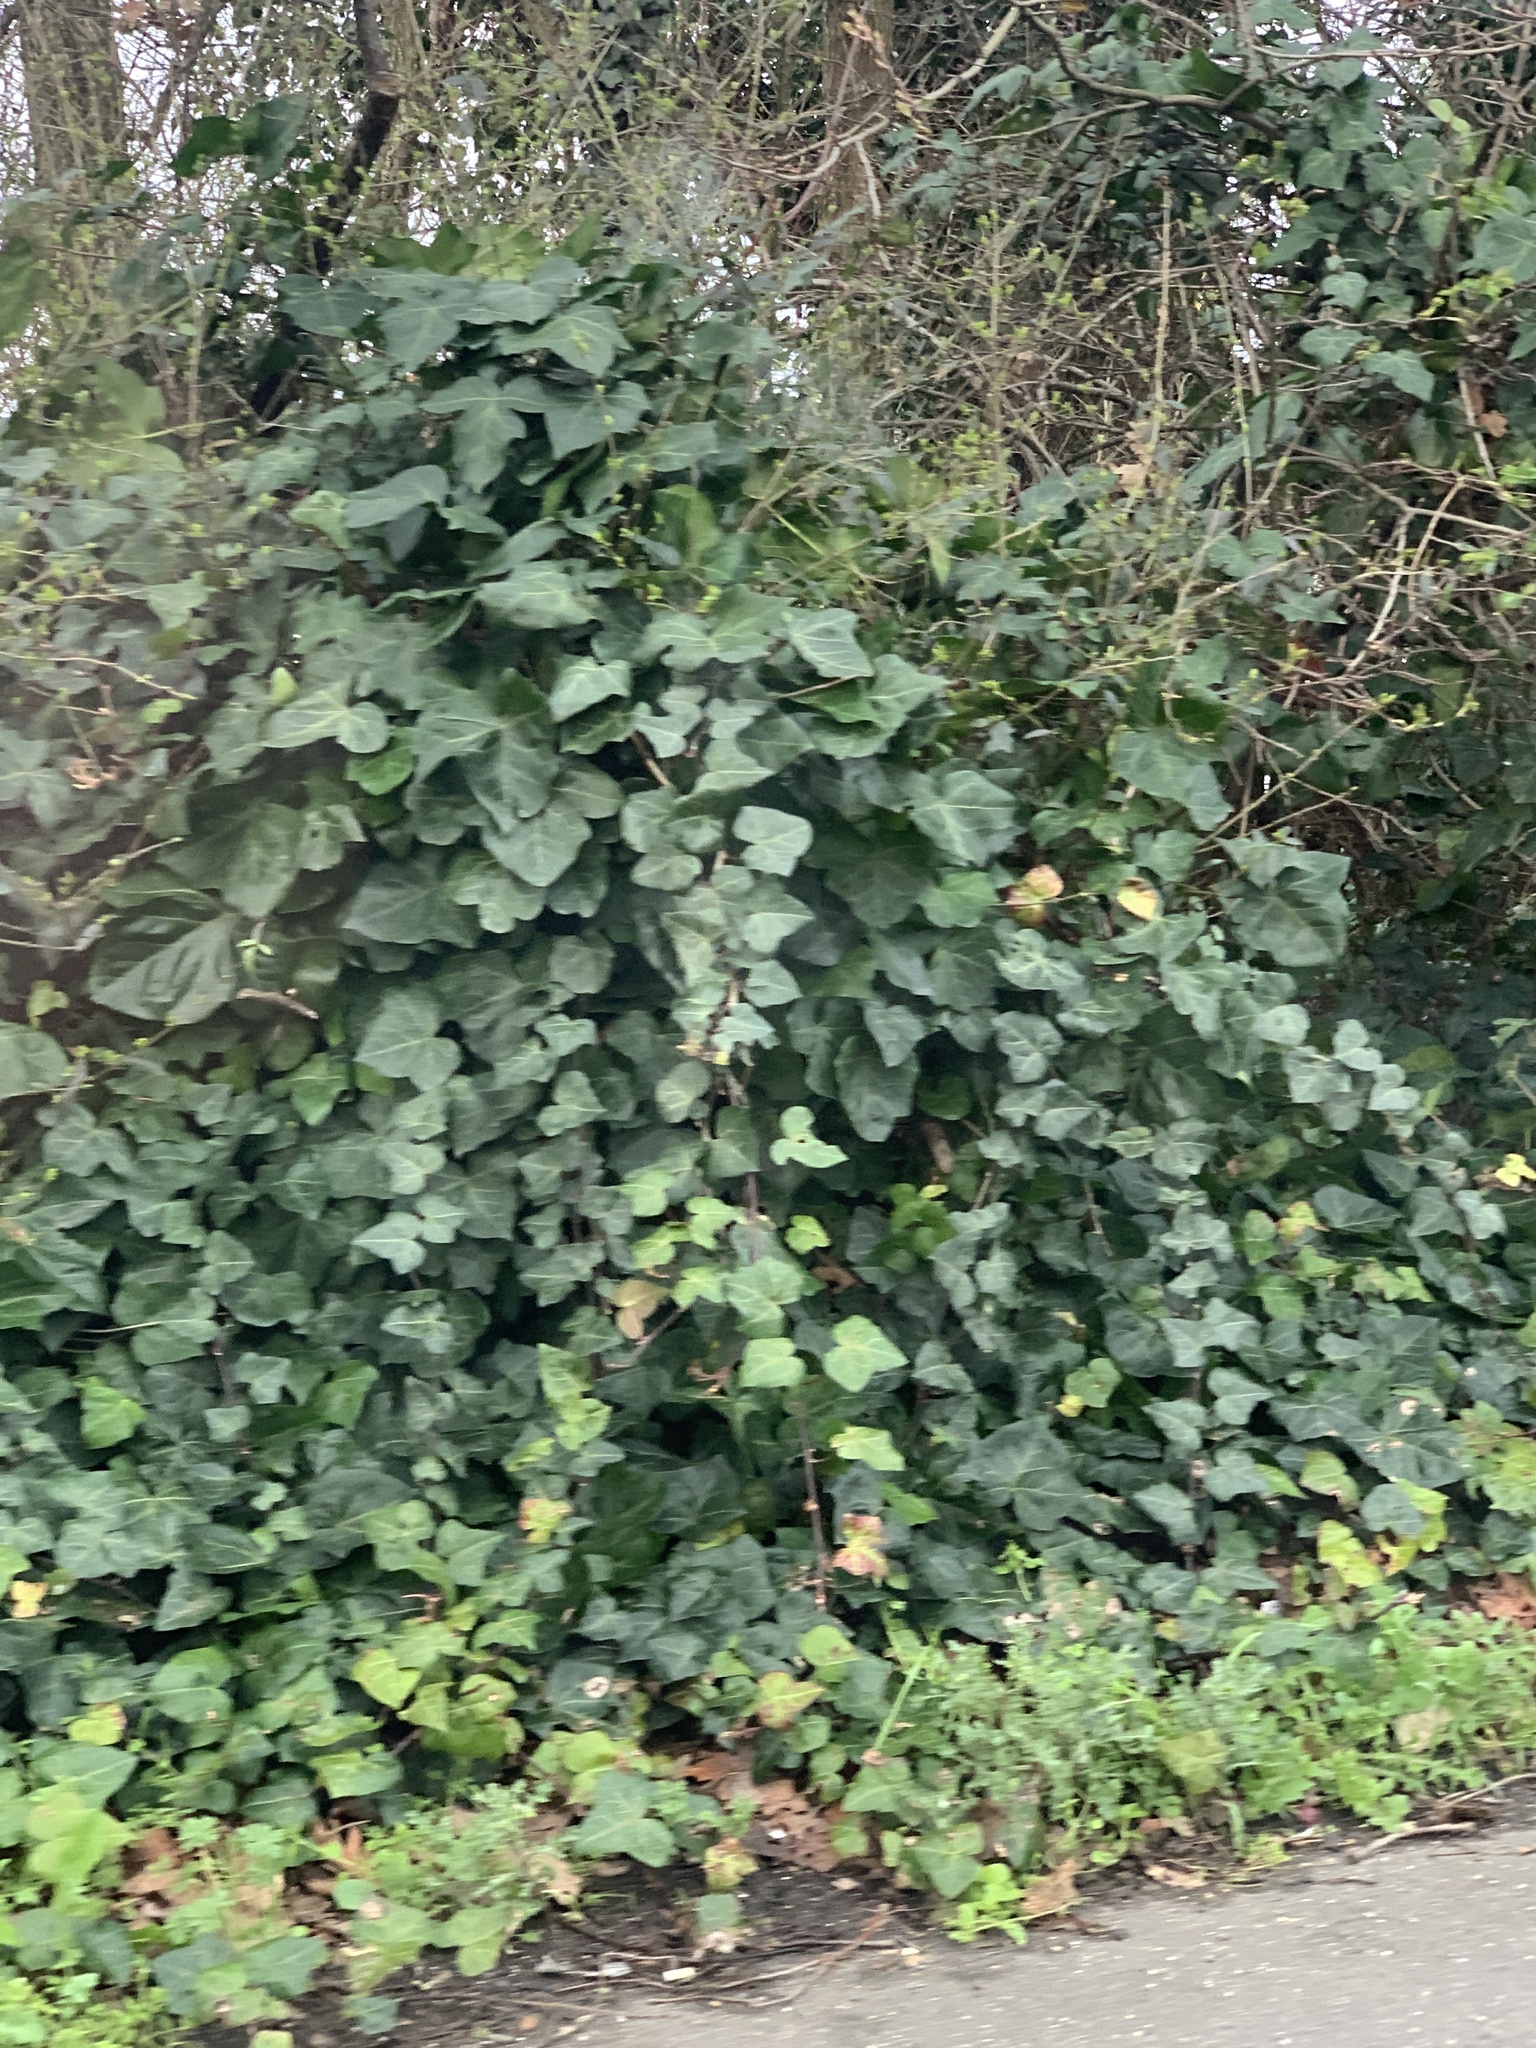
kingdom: Plantae
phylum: Tracheophyta
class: Magnoliopsida
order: Apiales
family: Araliaceae
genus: Hedera
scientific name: Hedera helix
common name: Ivy
